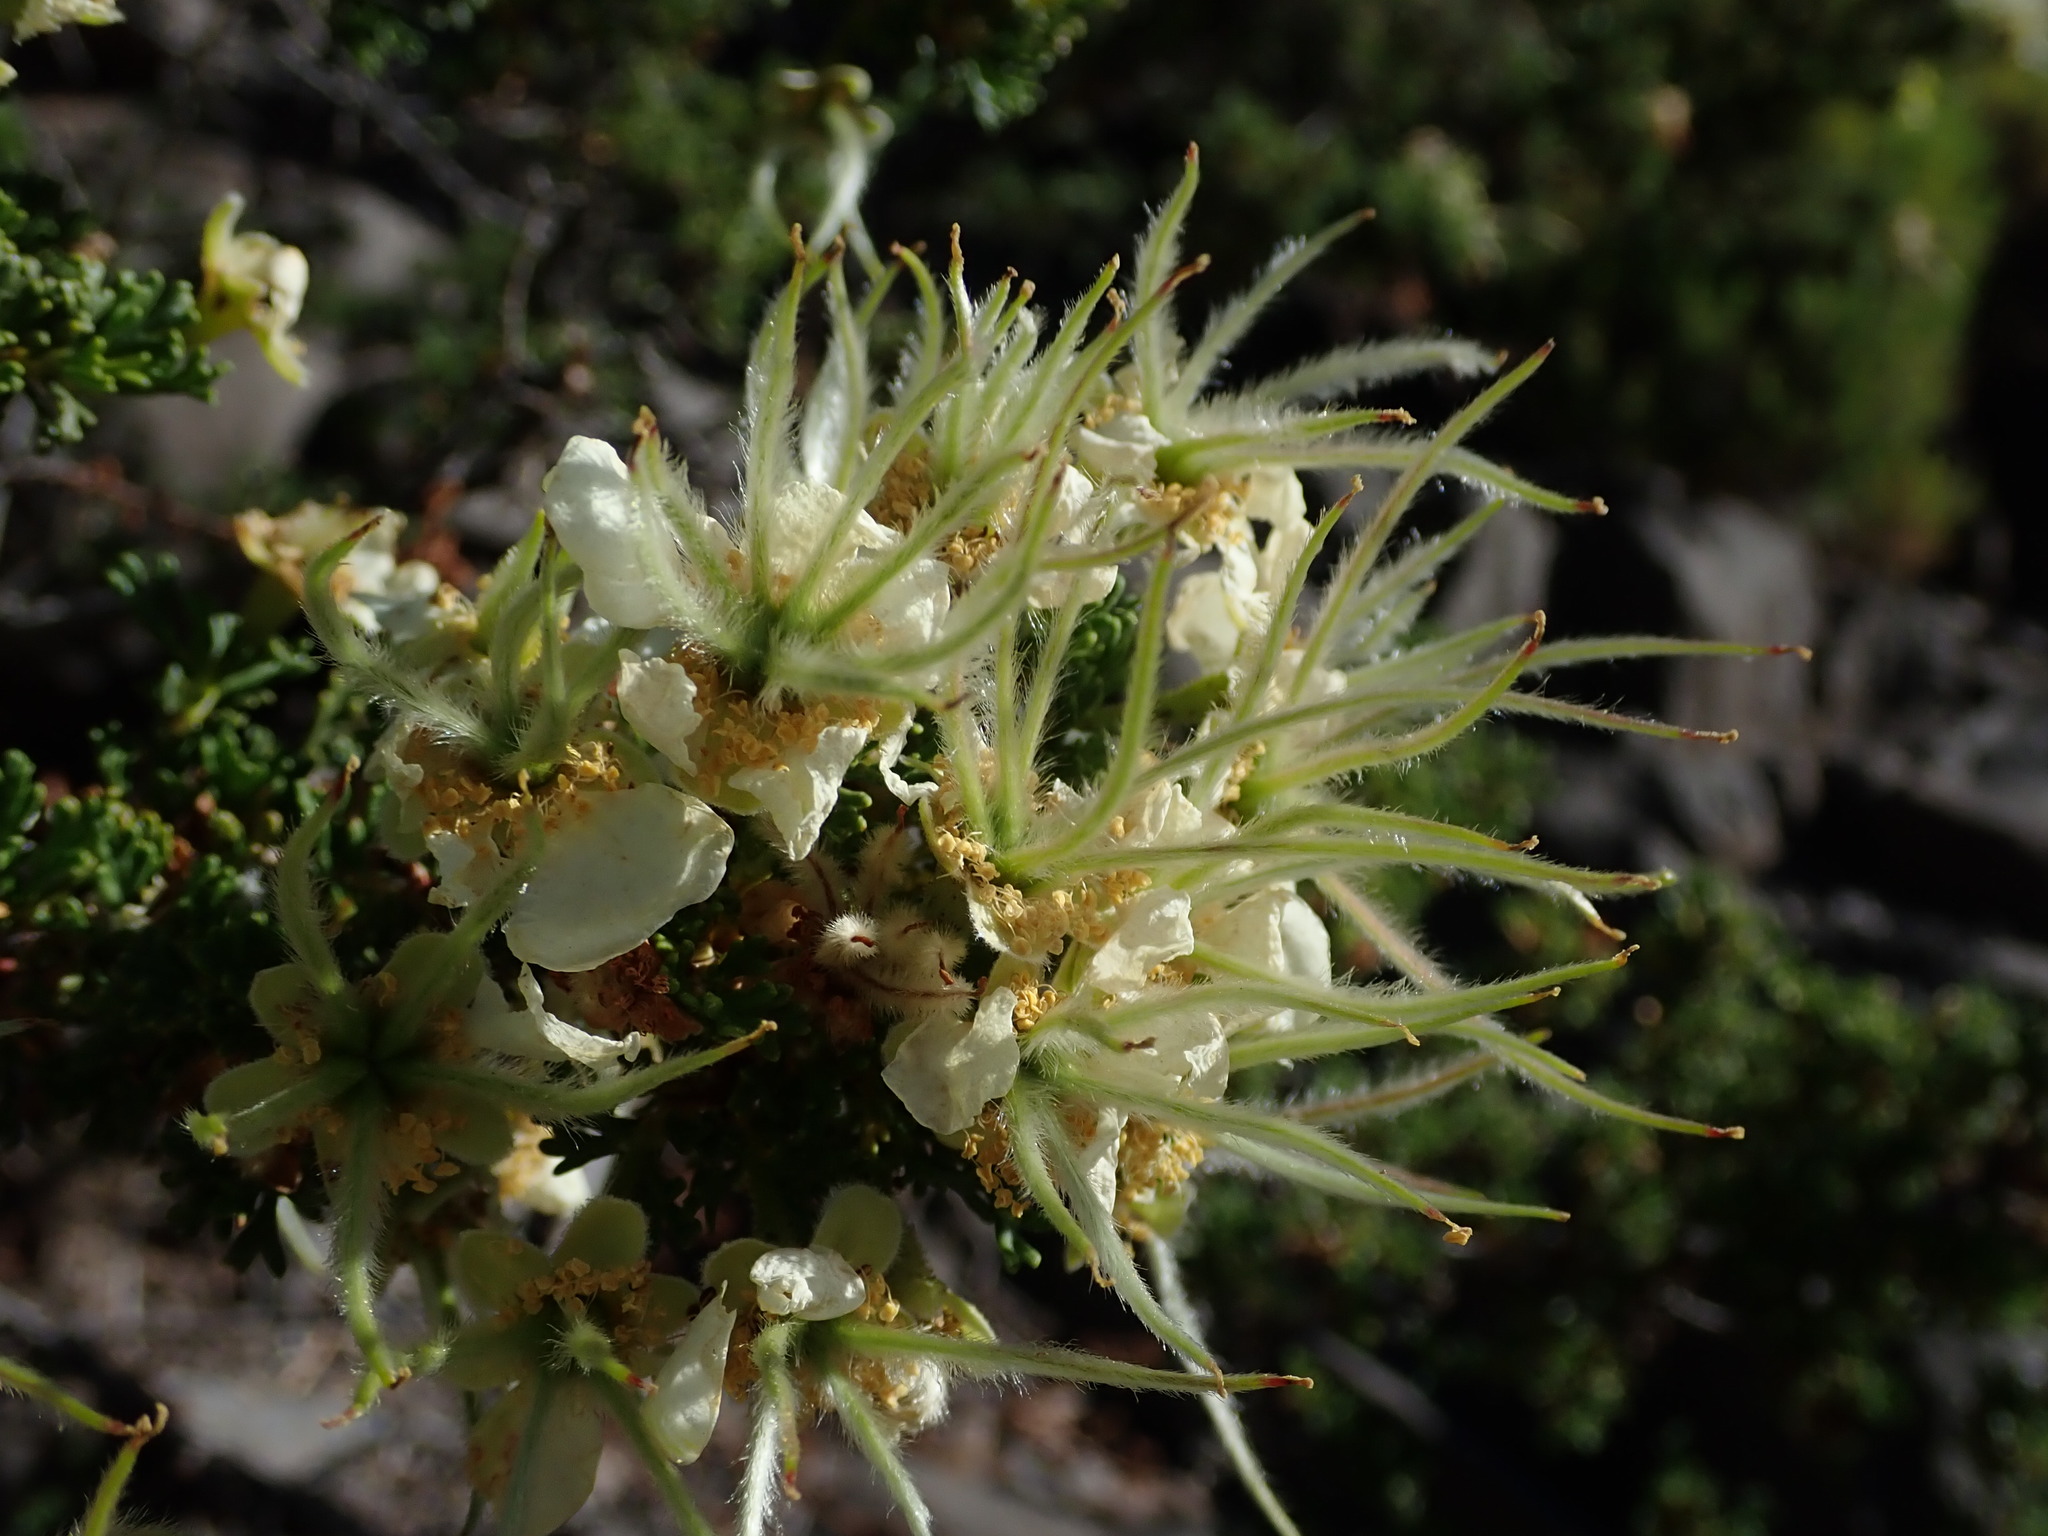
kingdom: Plantae
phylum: Tracheophyta
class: Magnoliopsida
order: Rosales
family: Rosaceae
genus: Purshia
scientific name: Purshia stansburiana
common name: Stansbury's cliffrose
